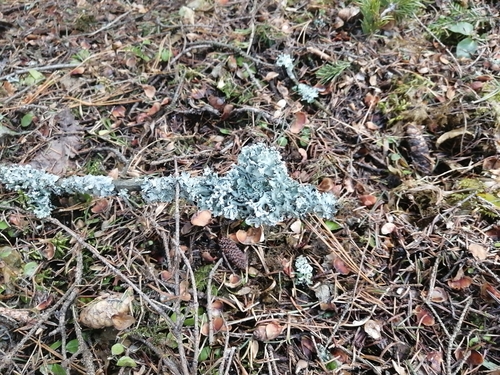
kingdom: Fungi
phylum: Ascomycota
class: Lecanoromycetes
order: Lecanorales
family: Parmeliaceae
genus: Hypogymnia
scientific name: Hypogymnia physodes
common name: Dark crottle
